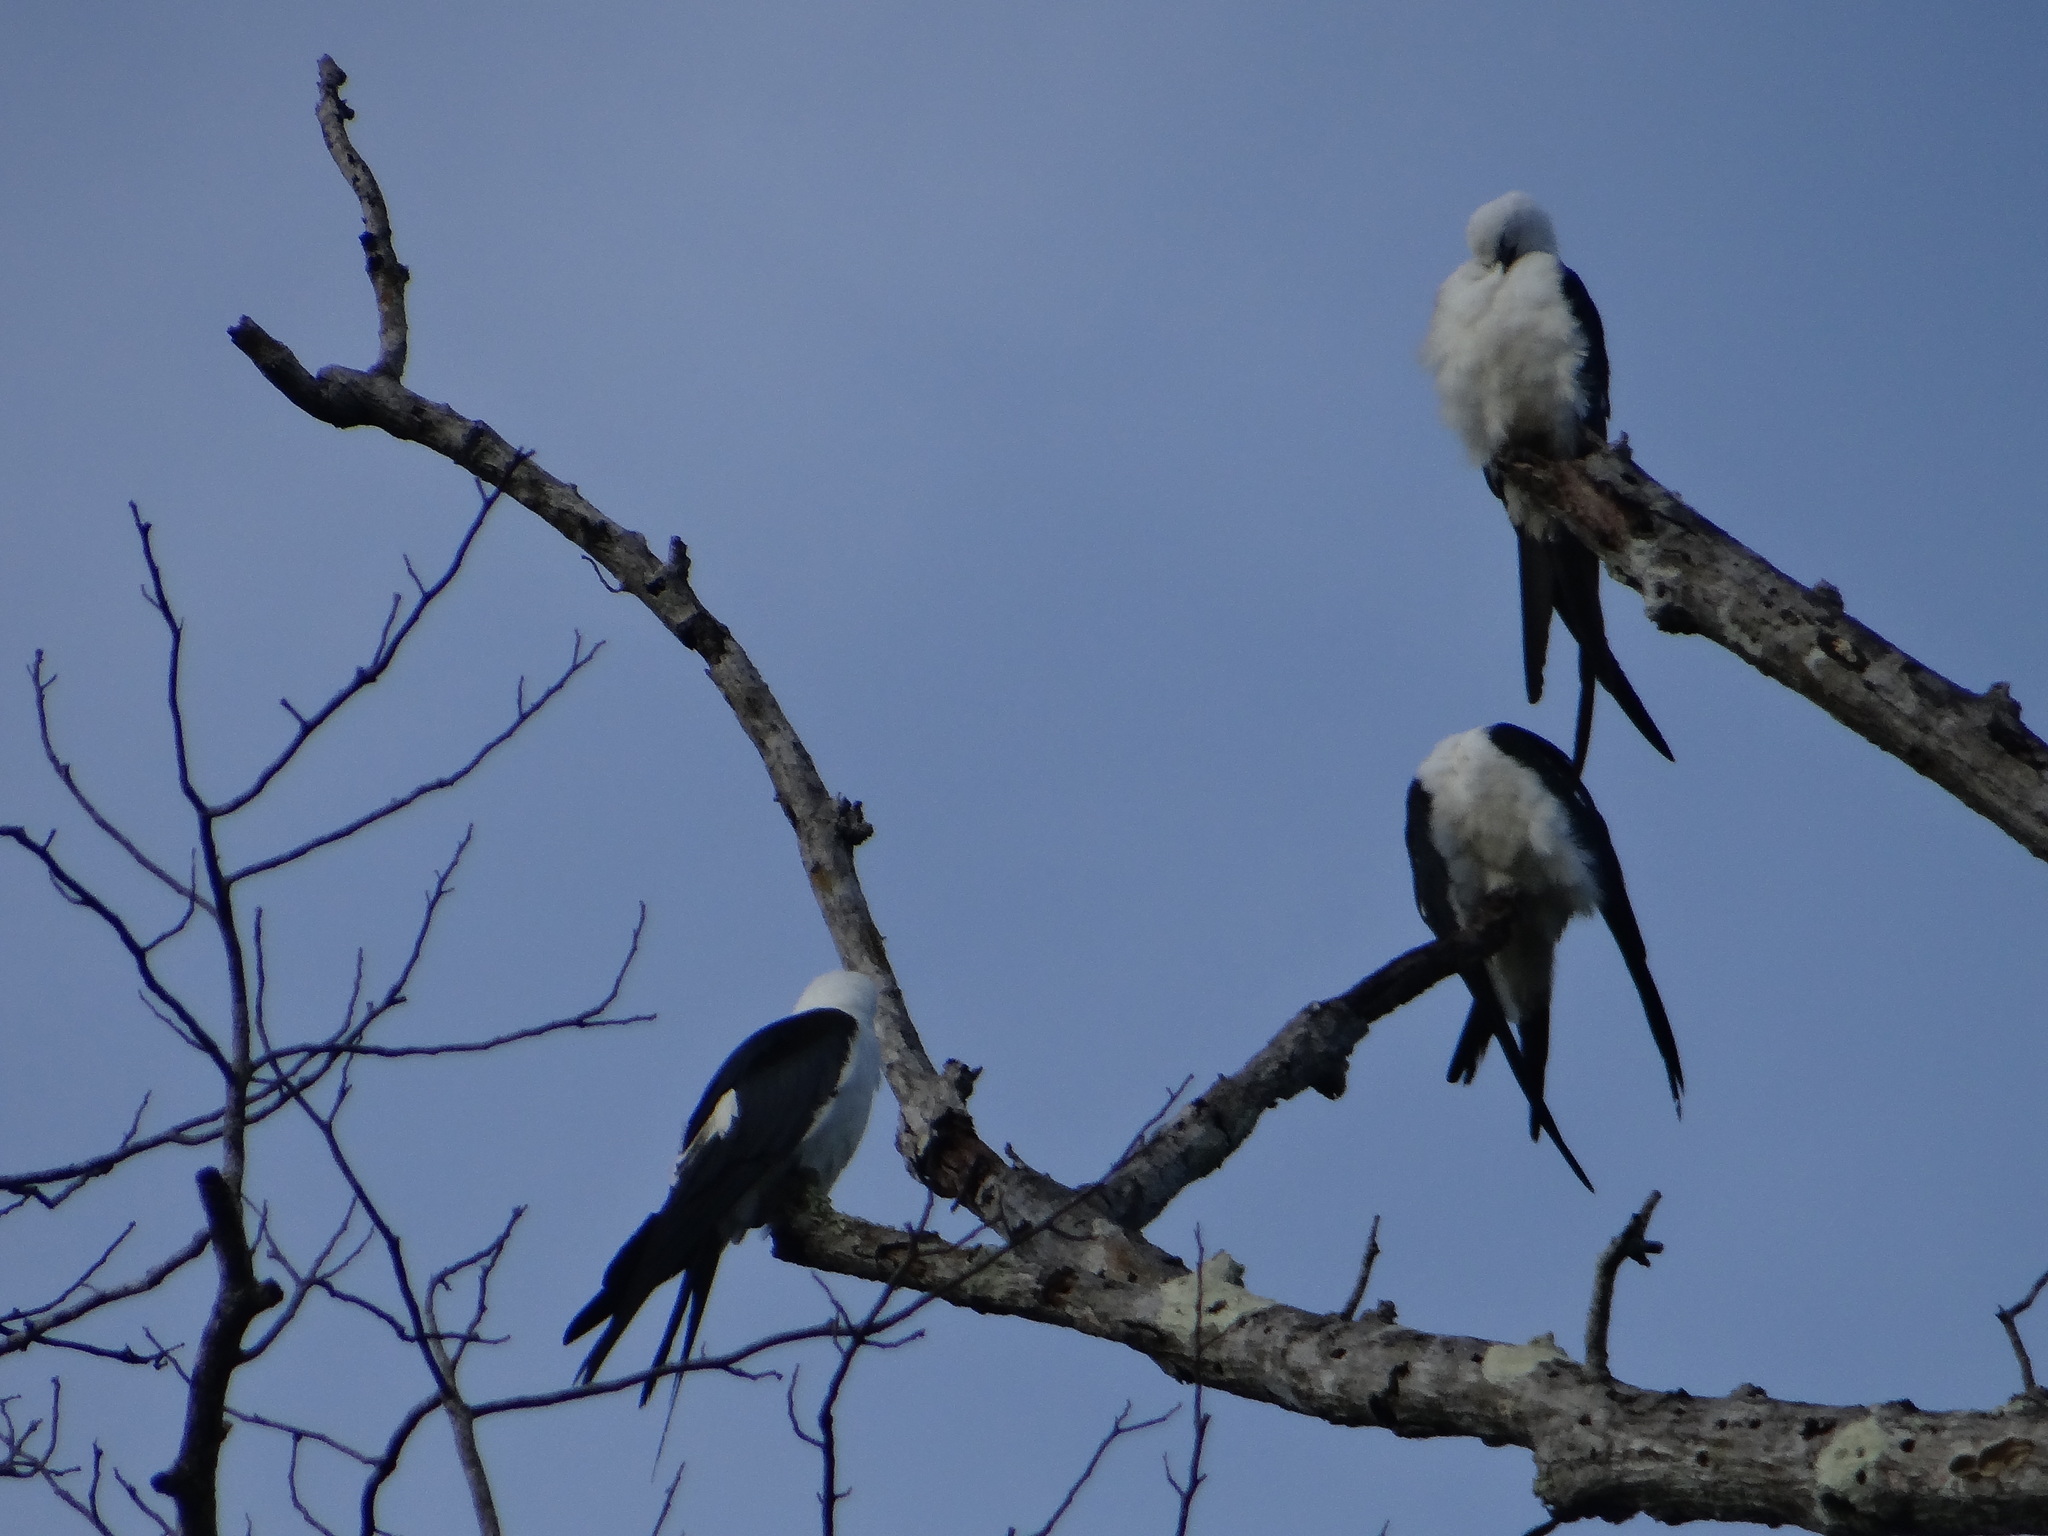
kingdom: Animalia
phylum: Chordata
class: Aves
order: Accipitriformes
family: Accipitridae
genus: Elanoides
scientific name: Elanoides forficatus
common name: Swallow-tailed kite
